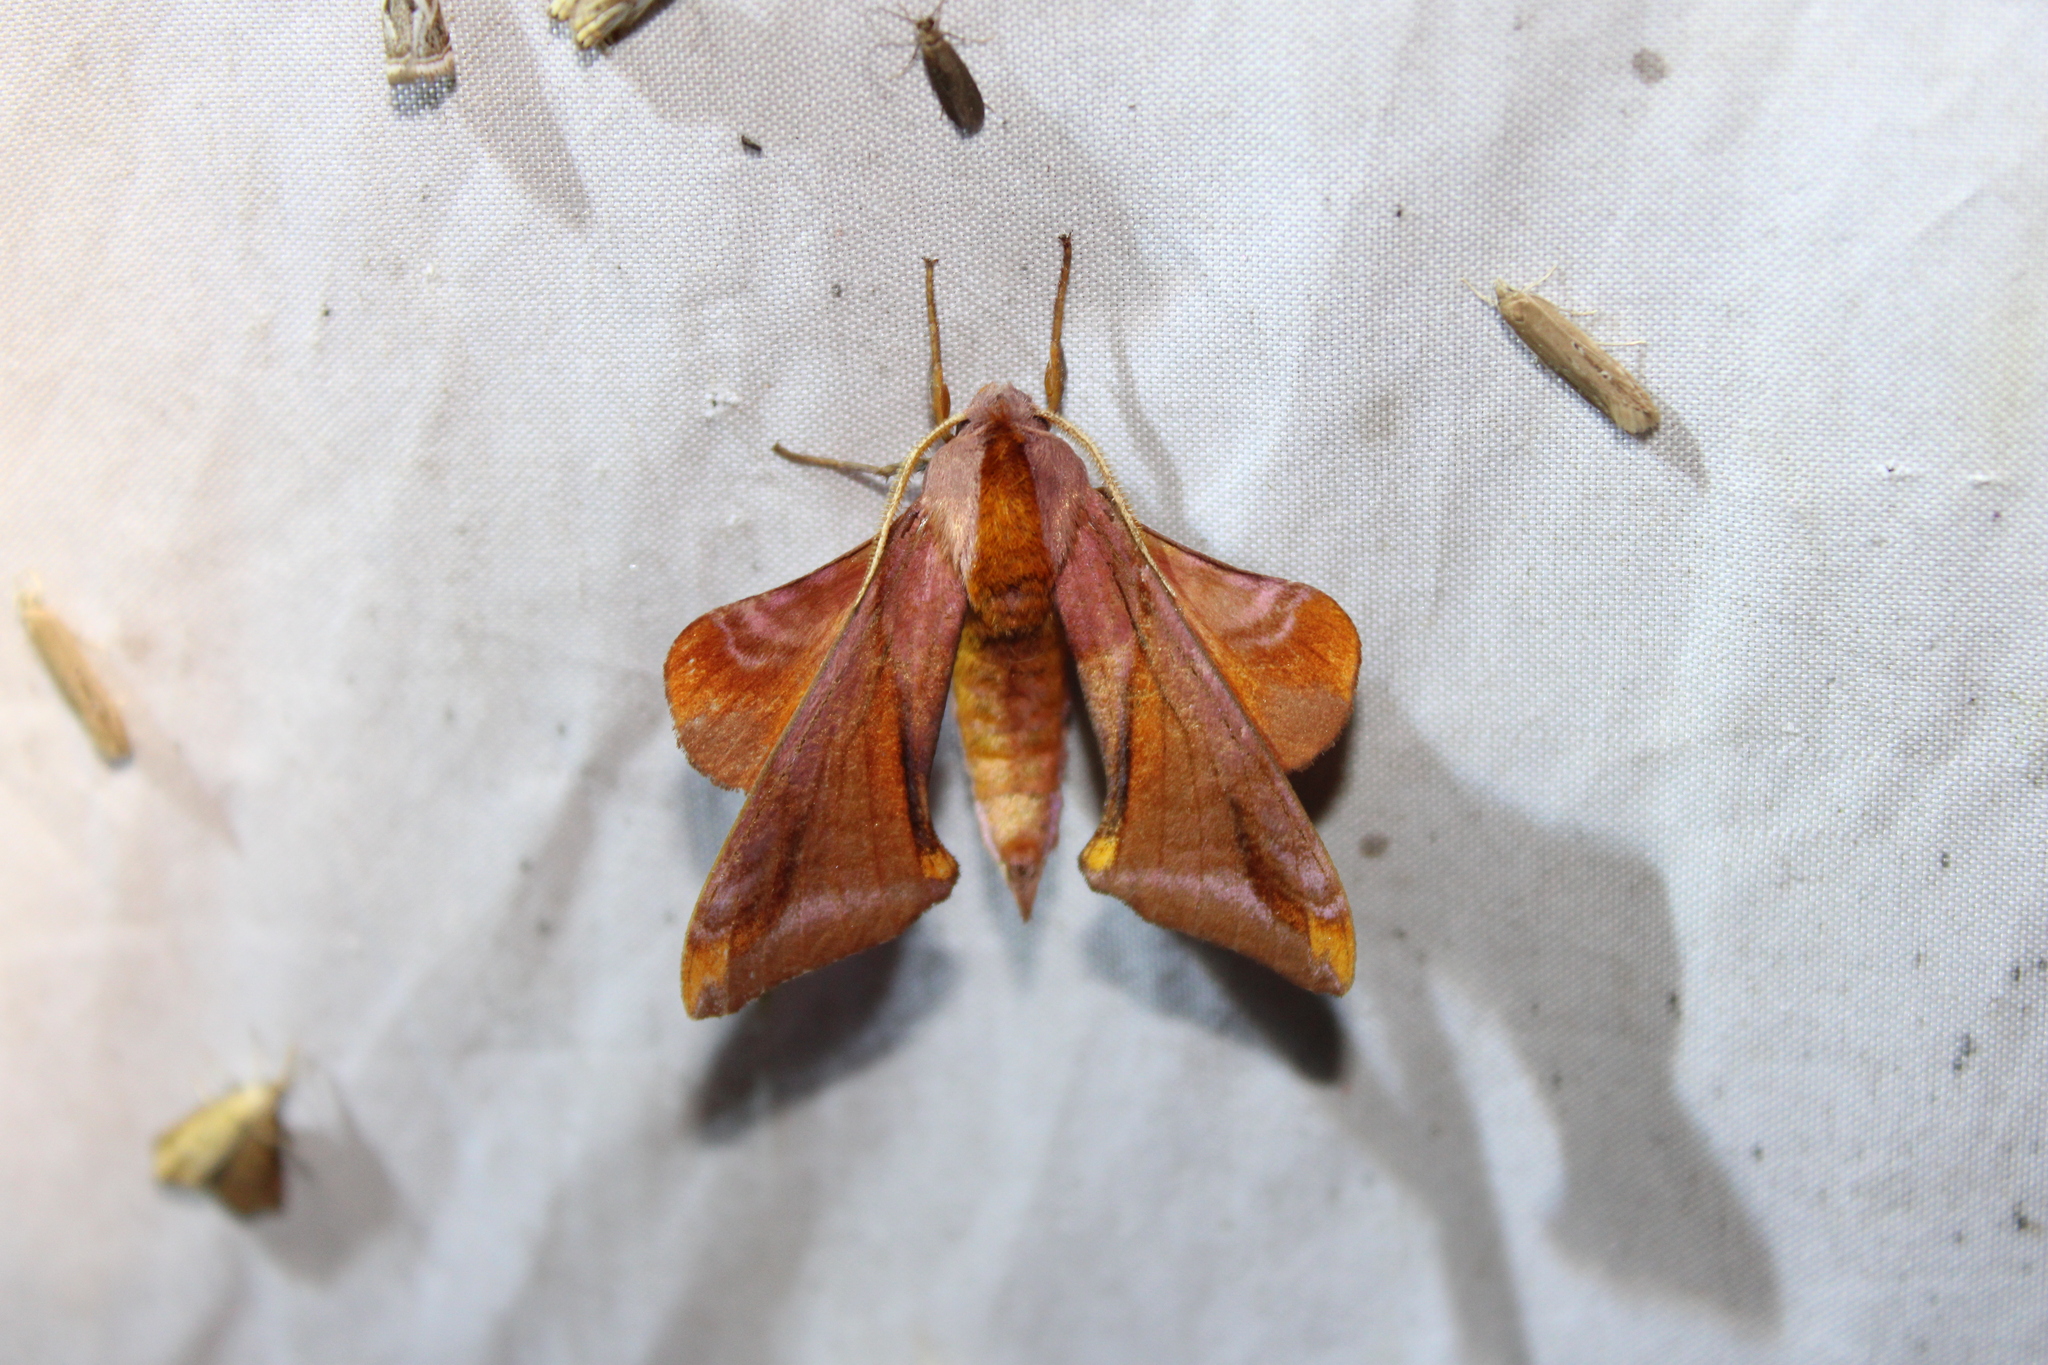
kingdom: Animalia
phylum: Arthropoda
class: Insecta
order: Lepidoptera
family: Sphingidae
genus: Paonias
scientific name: Paonias astylus
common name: Huckleberry sphinx
